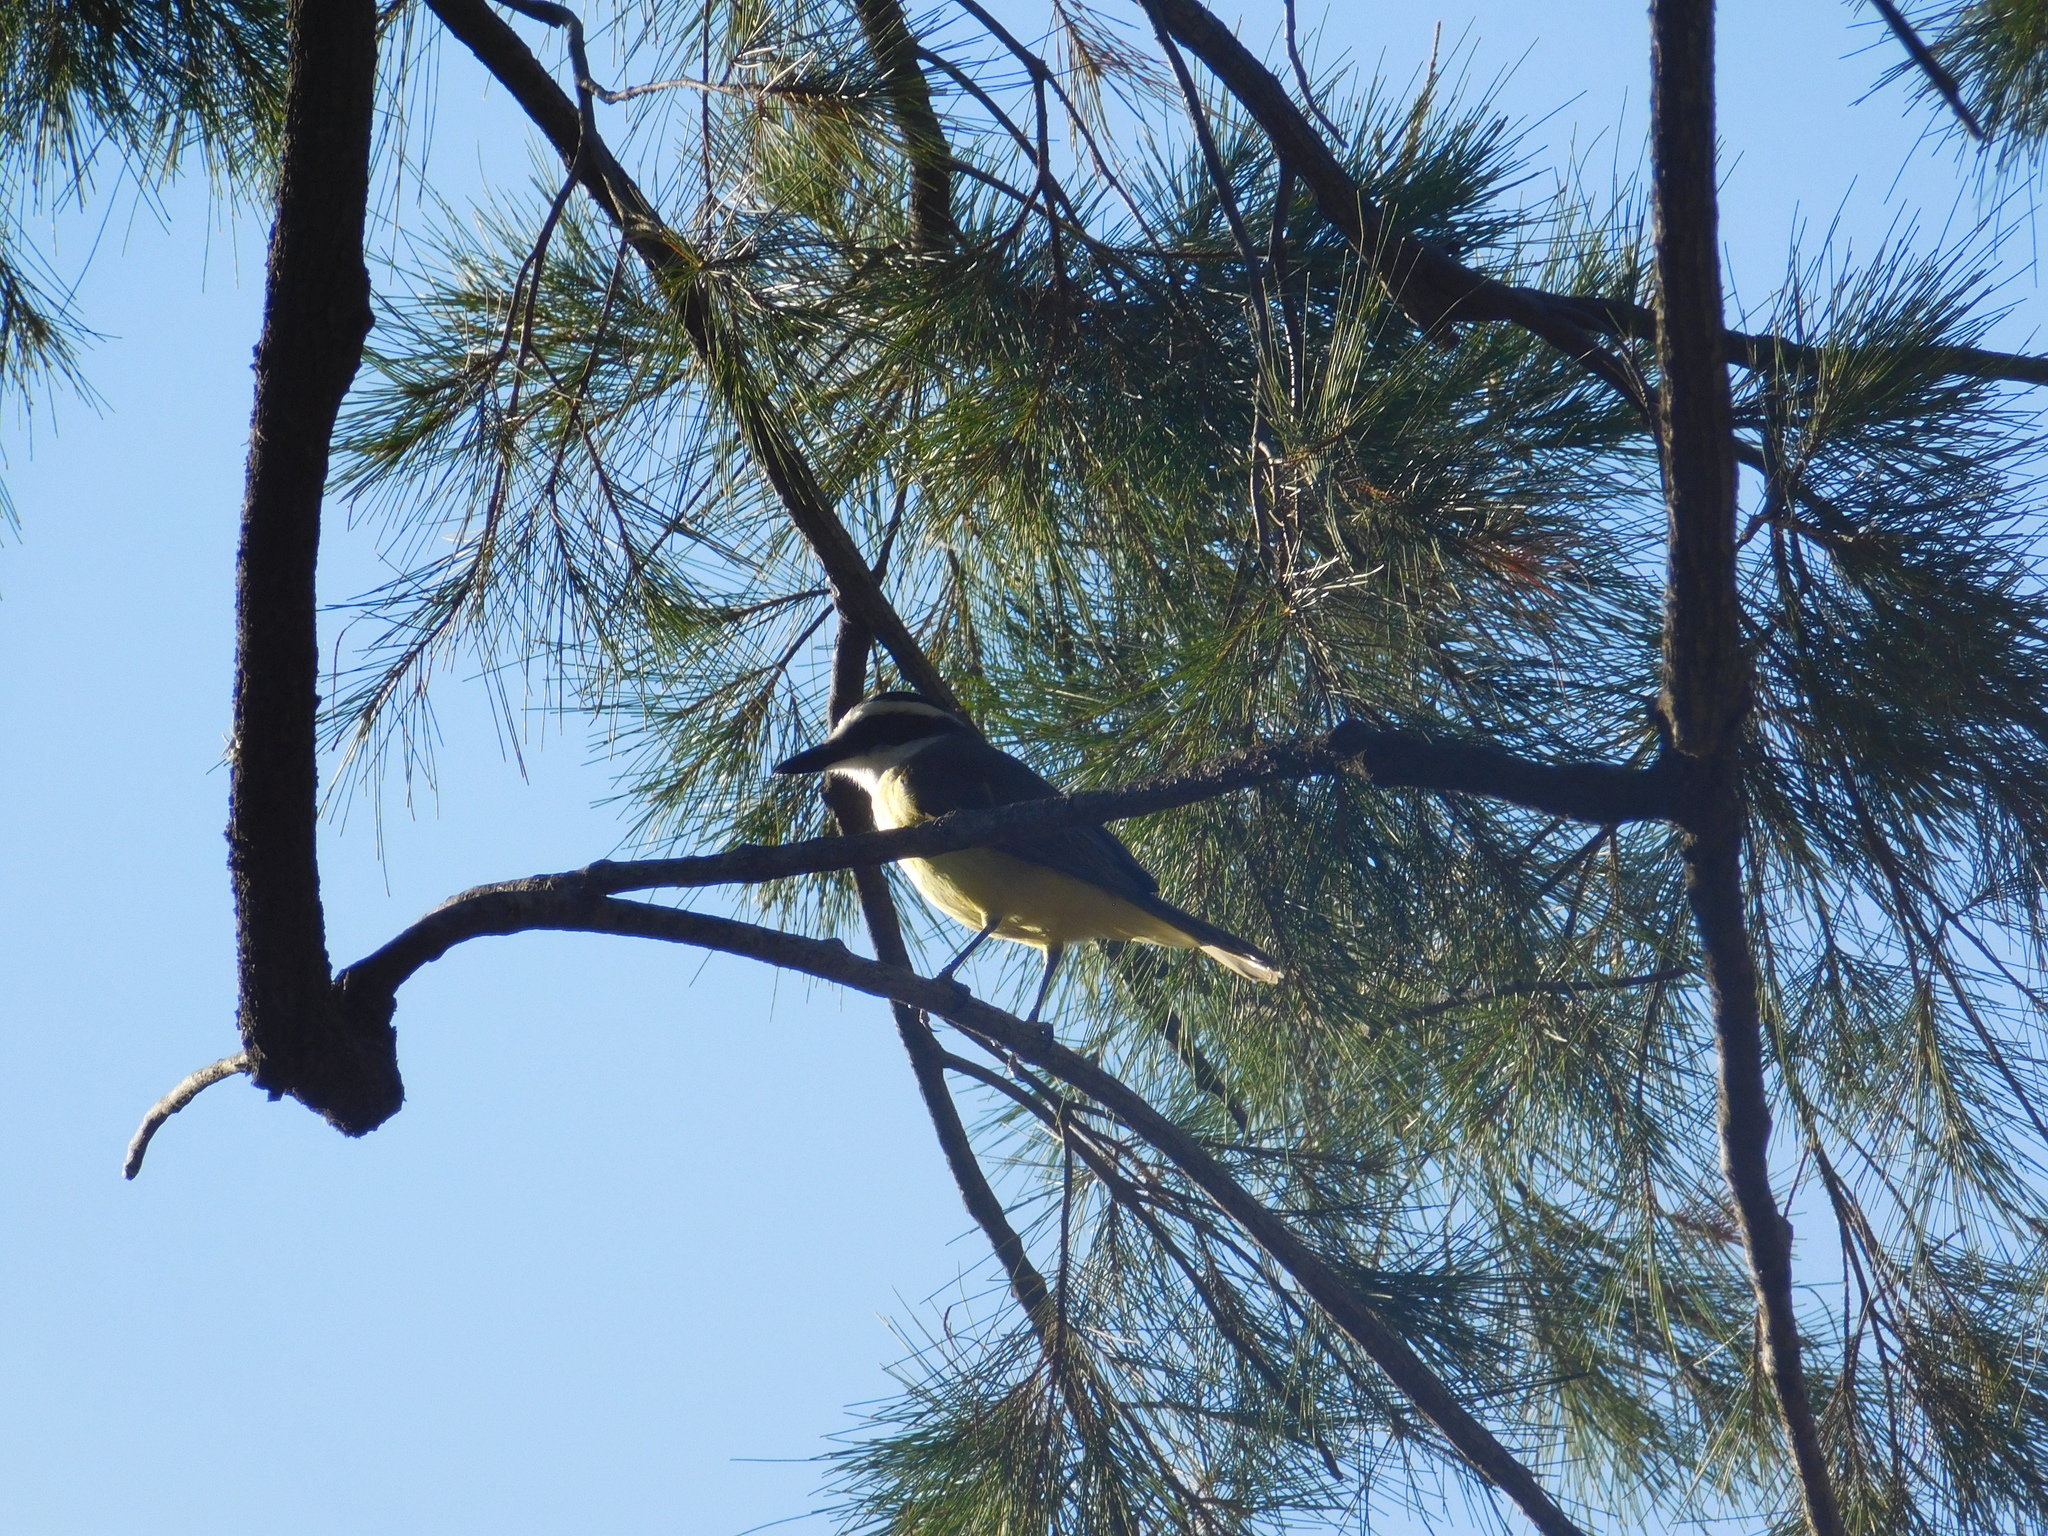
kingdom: Animalia
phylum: Chordata
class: Aves
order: Passeriformes
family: Tyrannidae
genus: Pitangus
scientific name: Pitangus sulphuratus
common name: Great kiskadee
